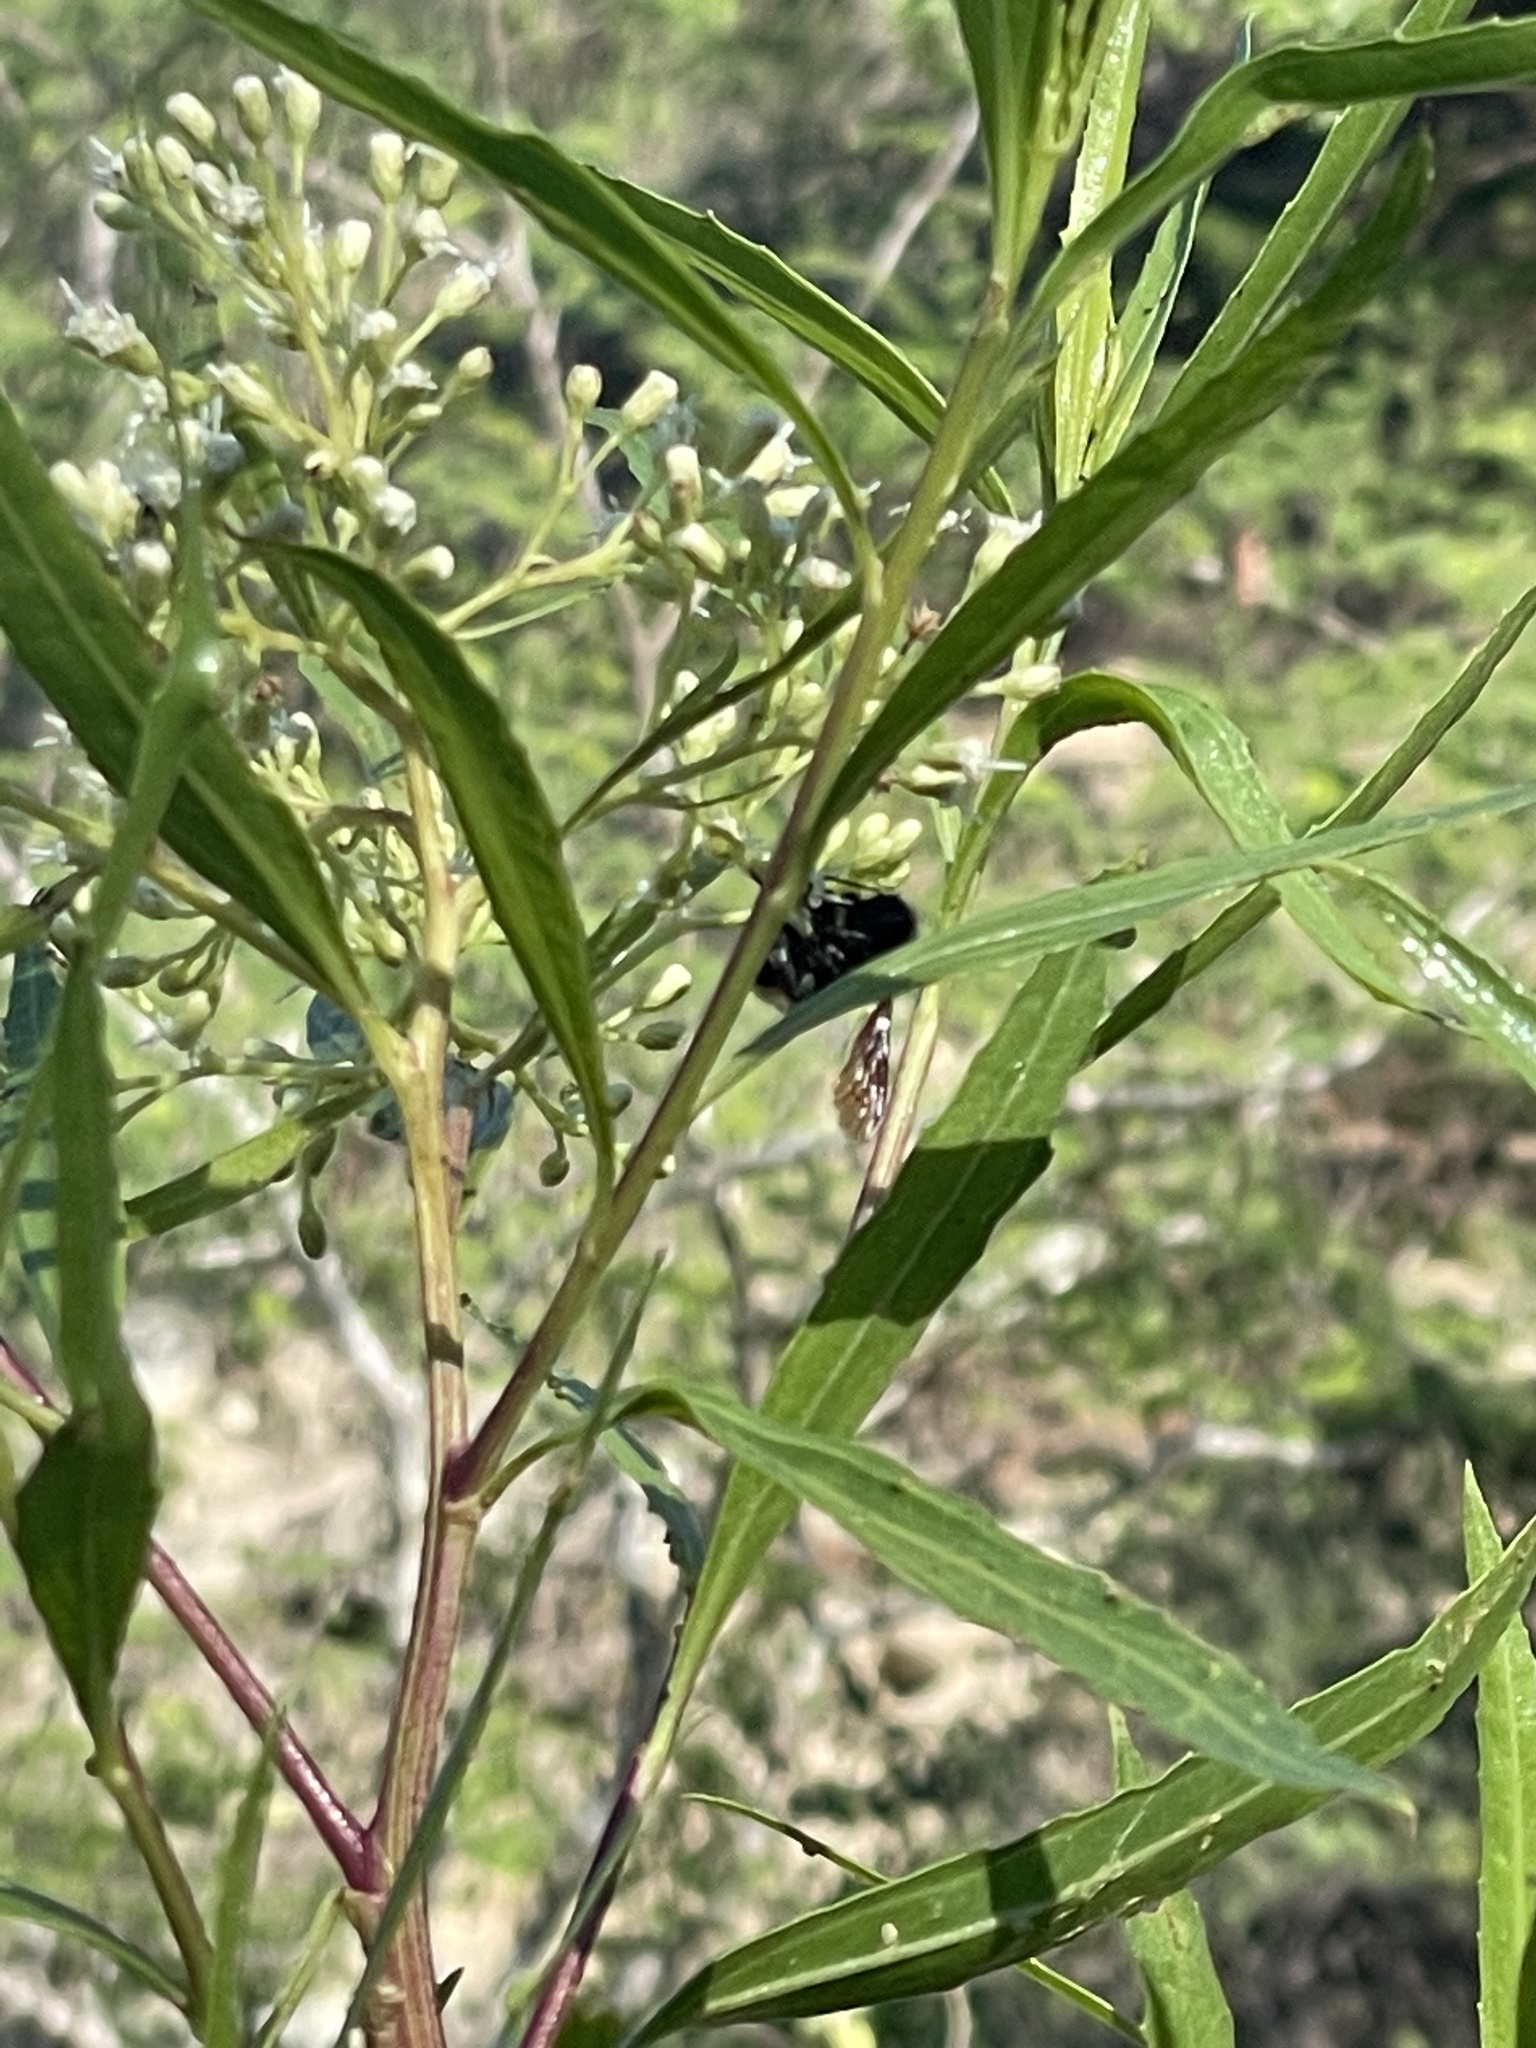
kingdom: Animalia
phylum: Arthropoda
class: Insecta
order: Hymenoptera
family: Apidae
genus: Bombus
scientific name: Bombus sonorus
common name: Sonoran bumble bee
